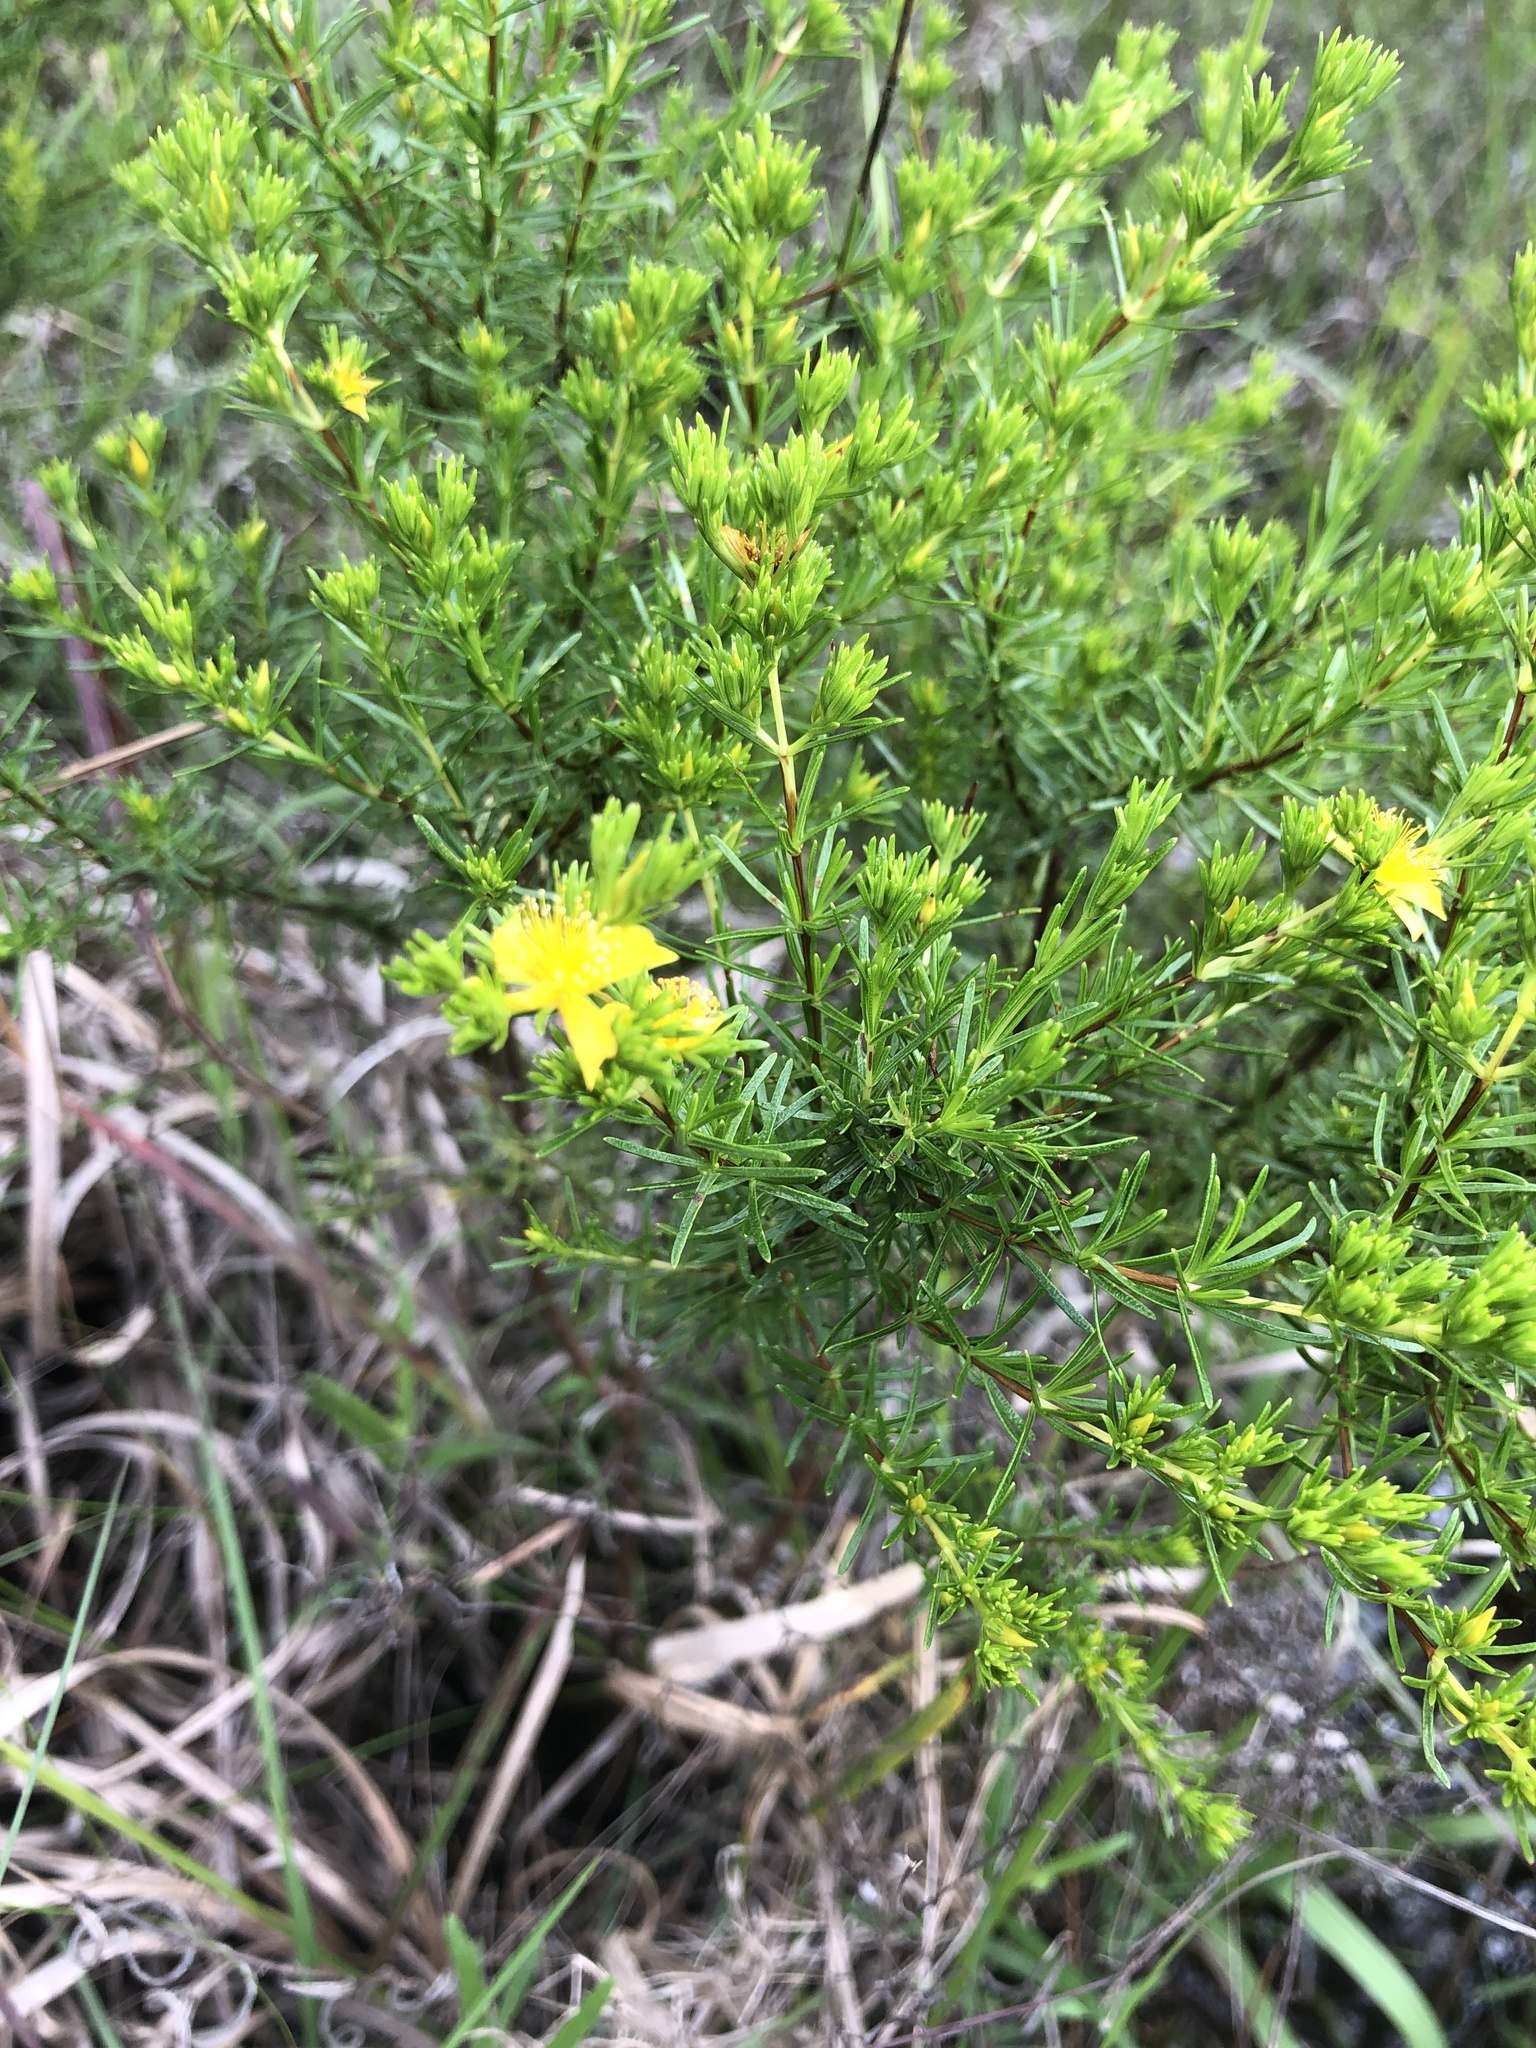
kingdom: Plantae
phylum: Tracheophyta
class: Magnoliopsida
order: Malpighiales
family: Hypericaceae
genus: Hypericum
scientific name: Hypericum brachyphyllum
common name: Coastal plain st. john's-wort
